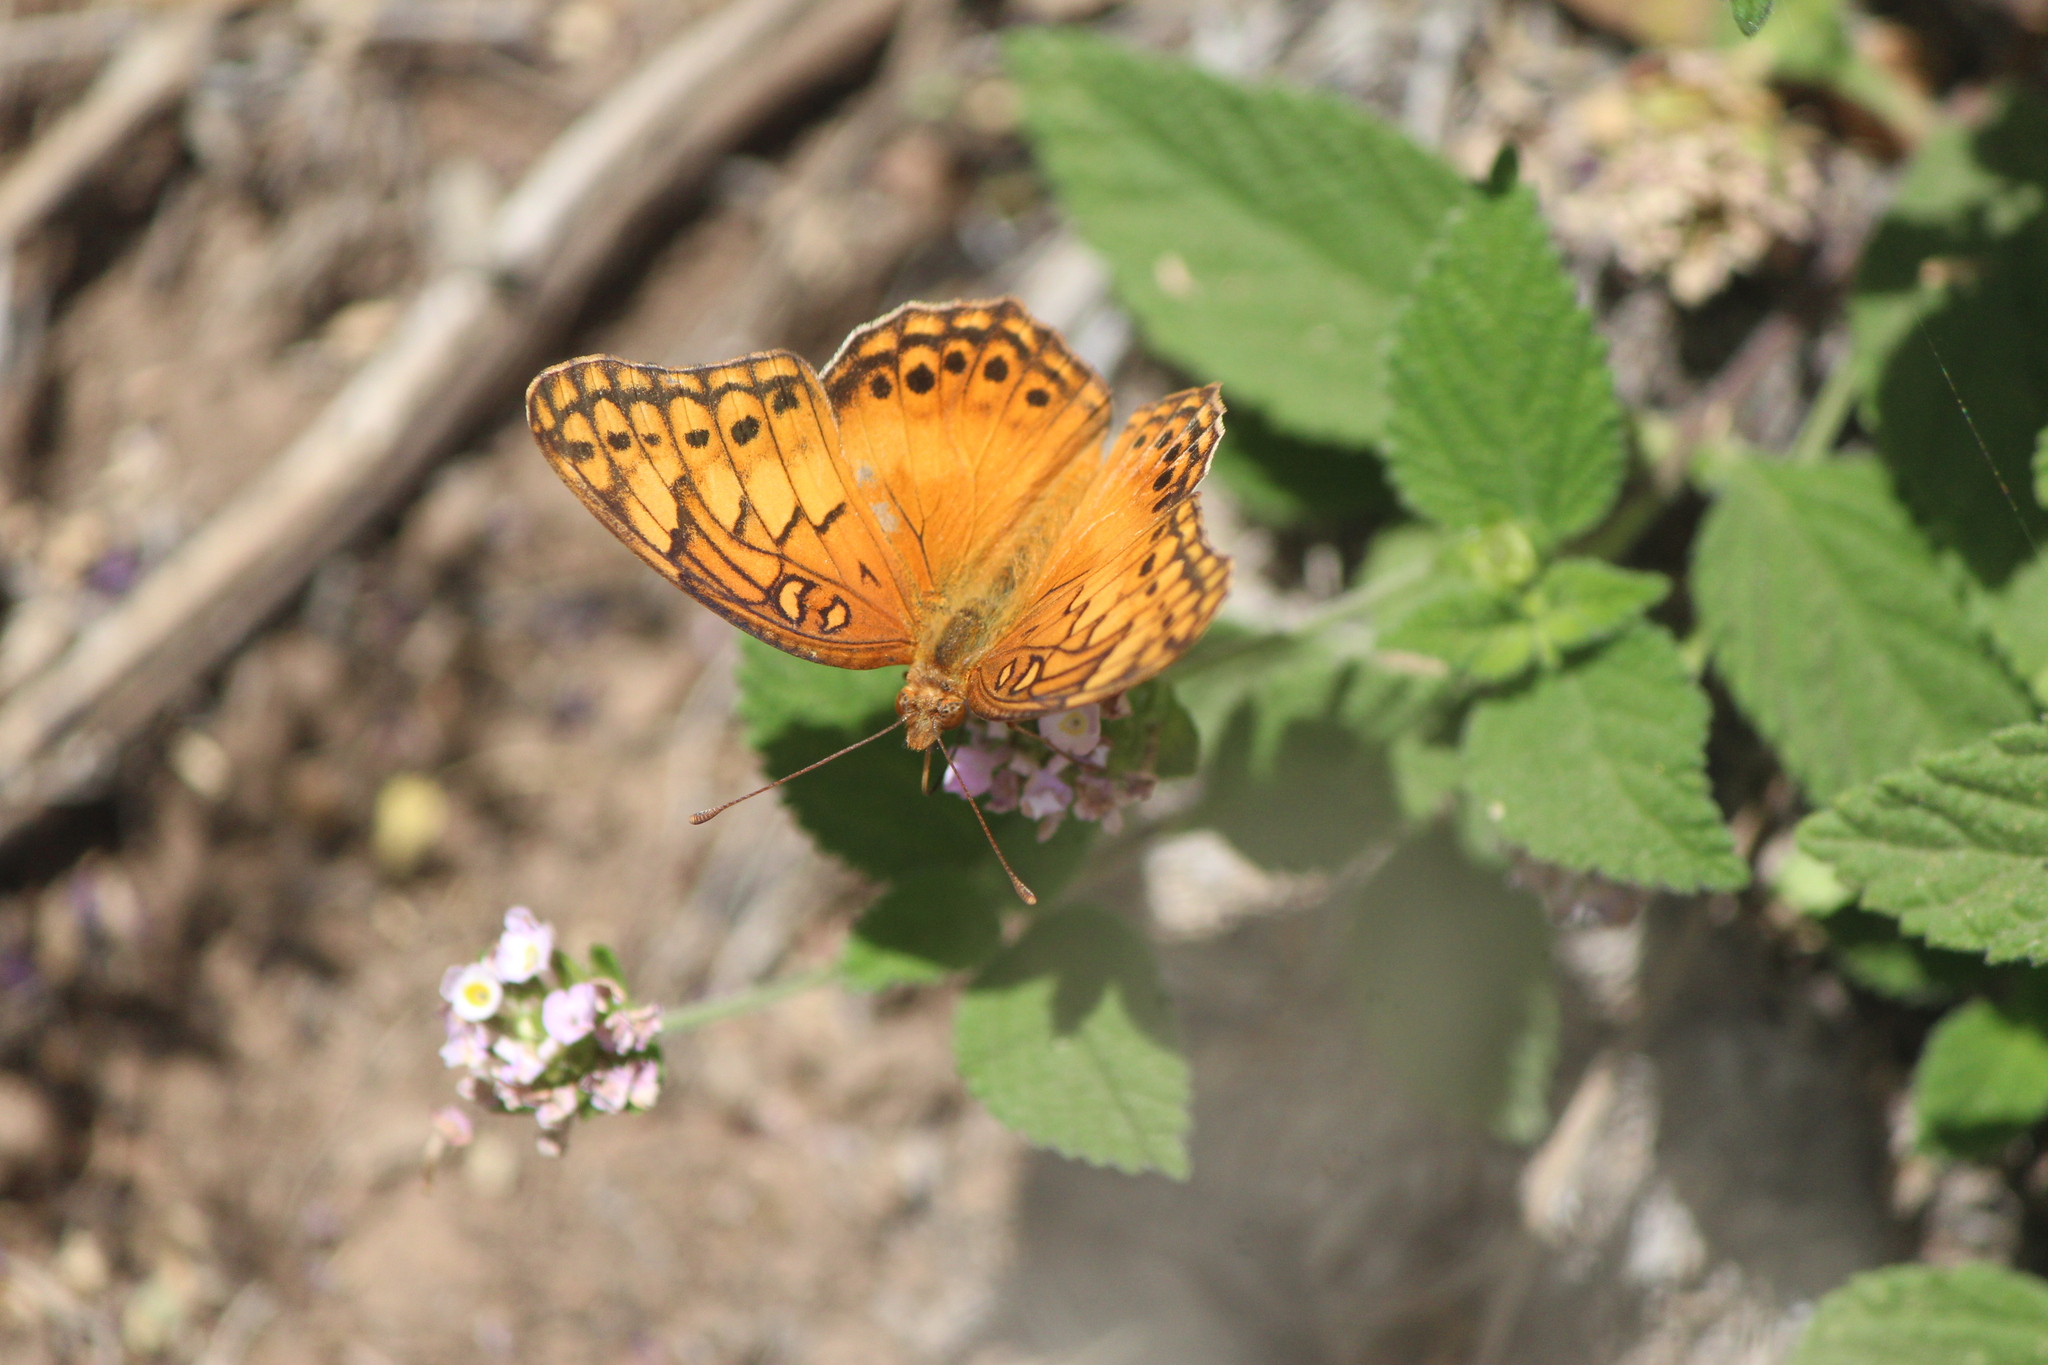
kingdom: Animalia
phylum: Arthropoda
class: Insecta
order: Lepidoptera
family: Nymphalidae
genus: Euptoieta
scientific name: Euptoieta hegesia
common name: Mexican fritillary
